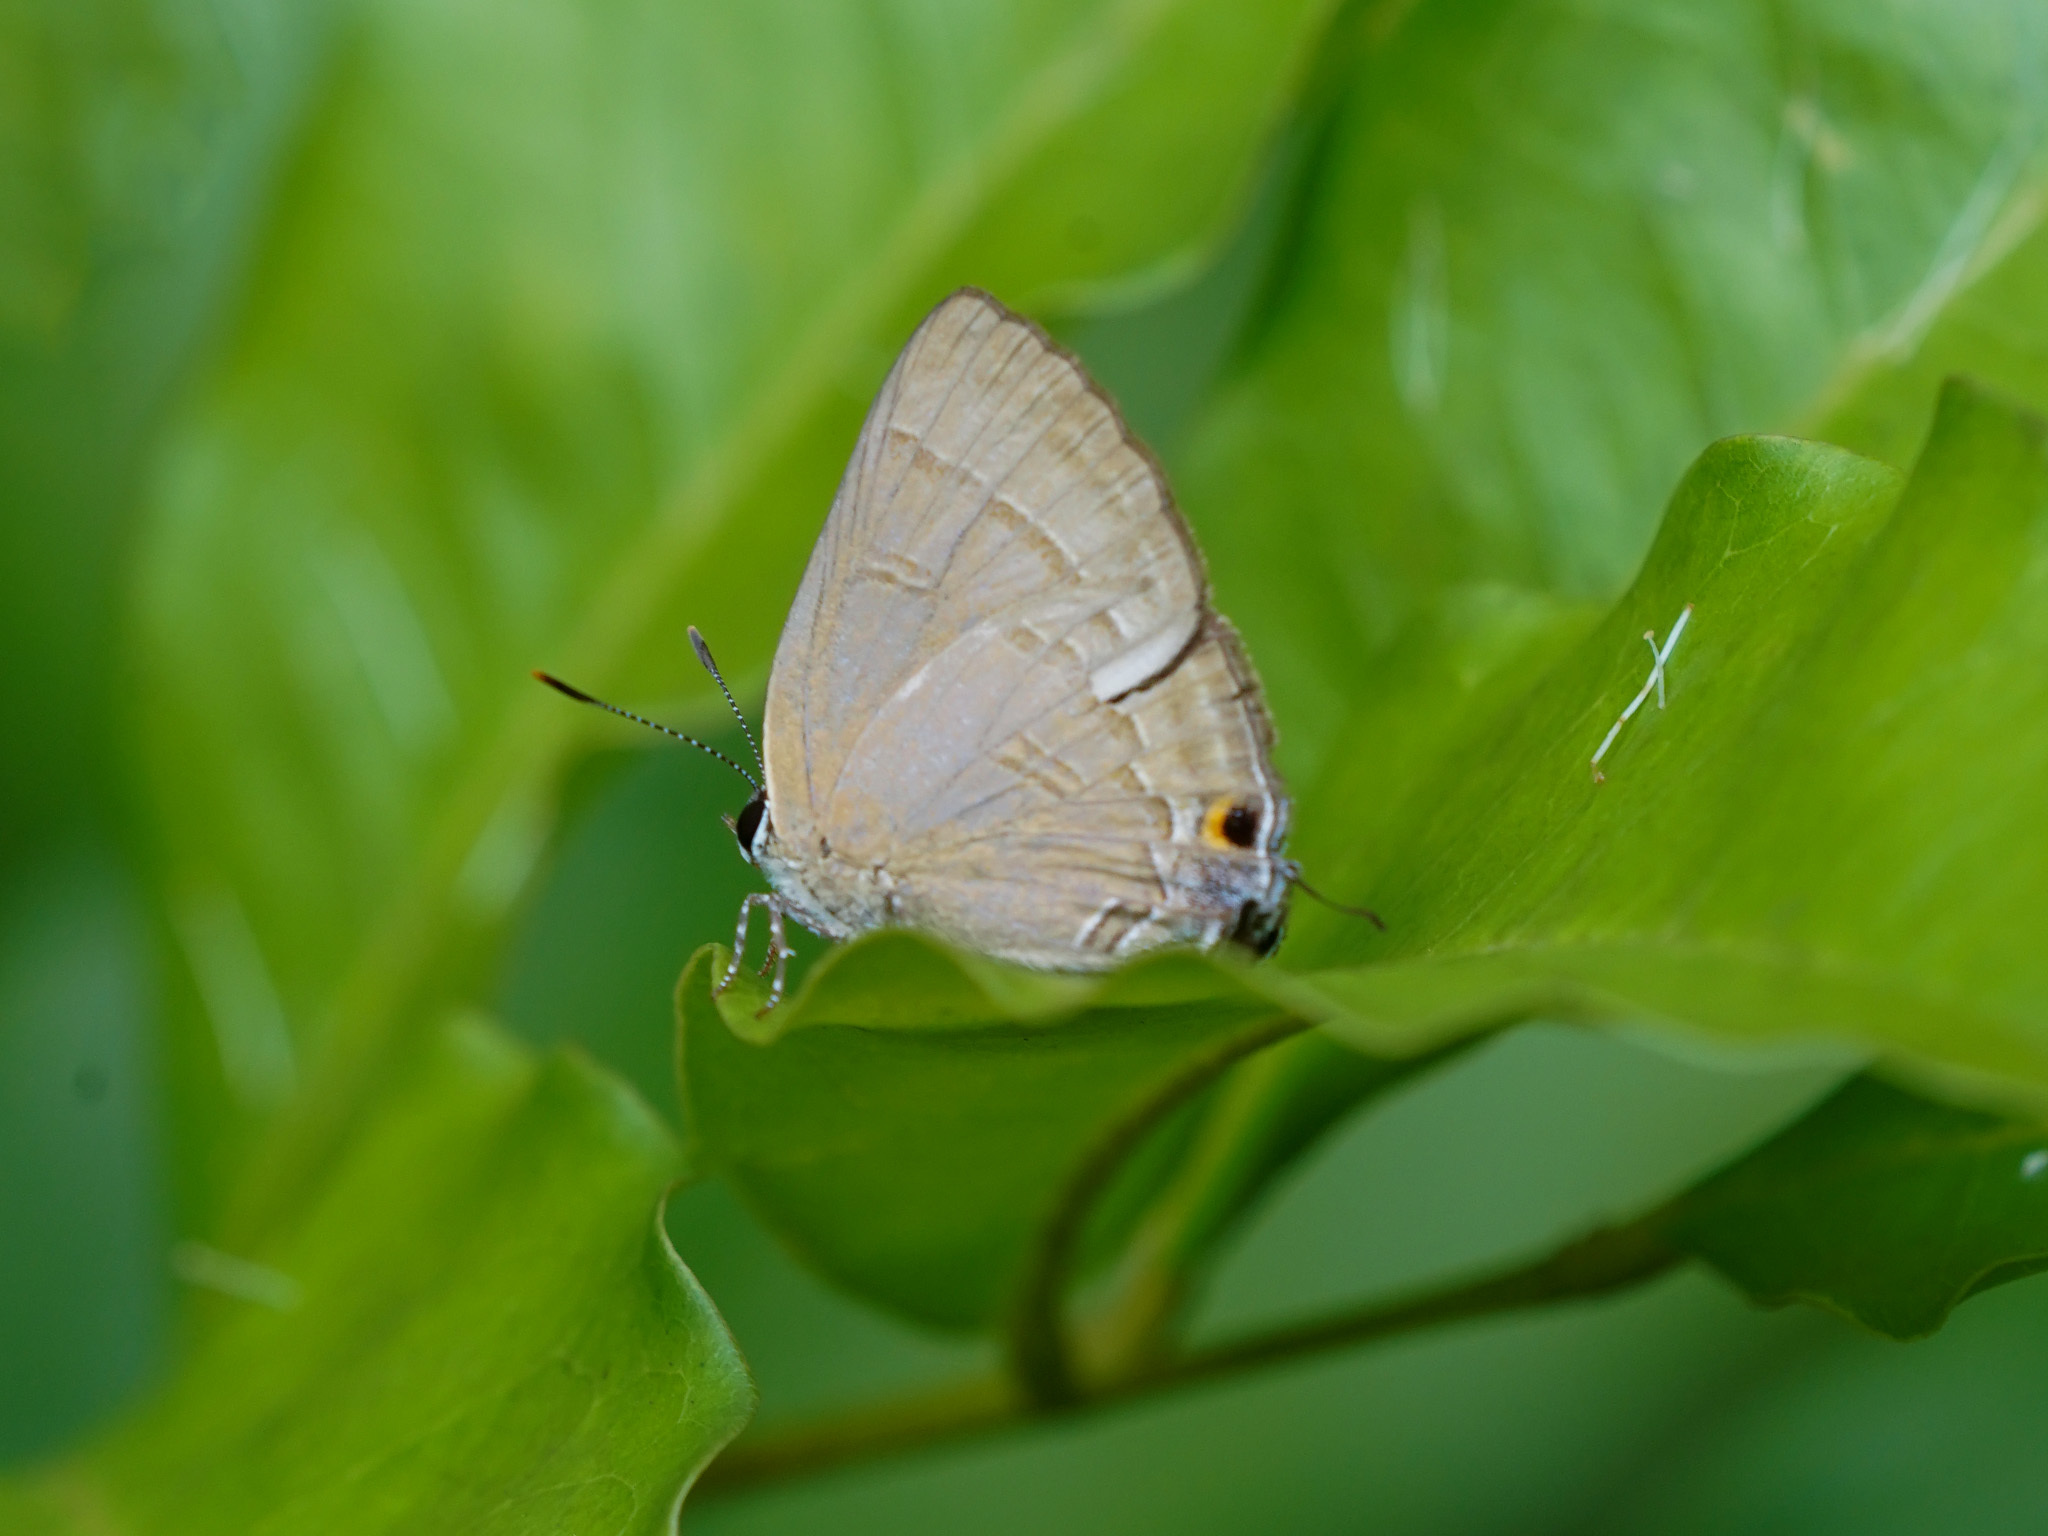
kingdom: Animalia
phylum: Arthropoda
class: Insecta
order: Lepidoptera
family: Lycaenidae
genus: Rapala
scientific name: Rapala manea
